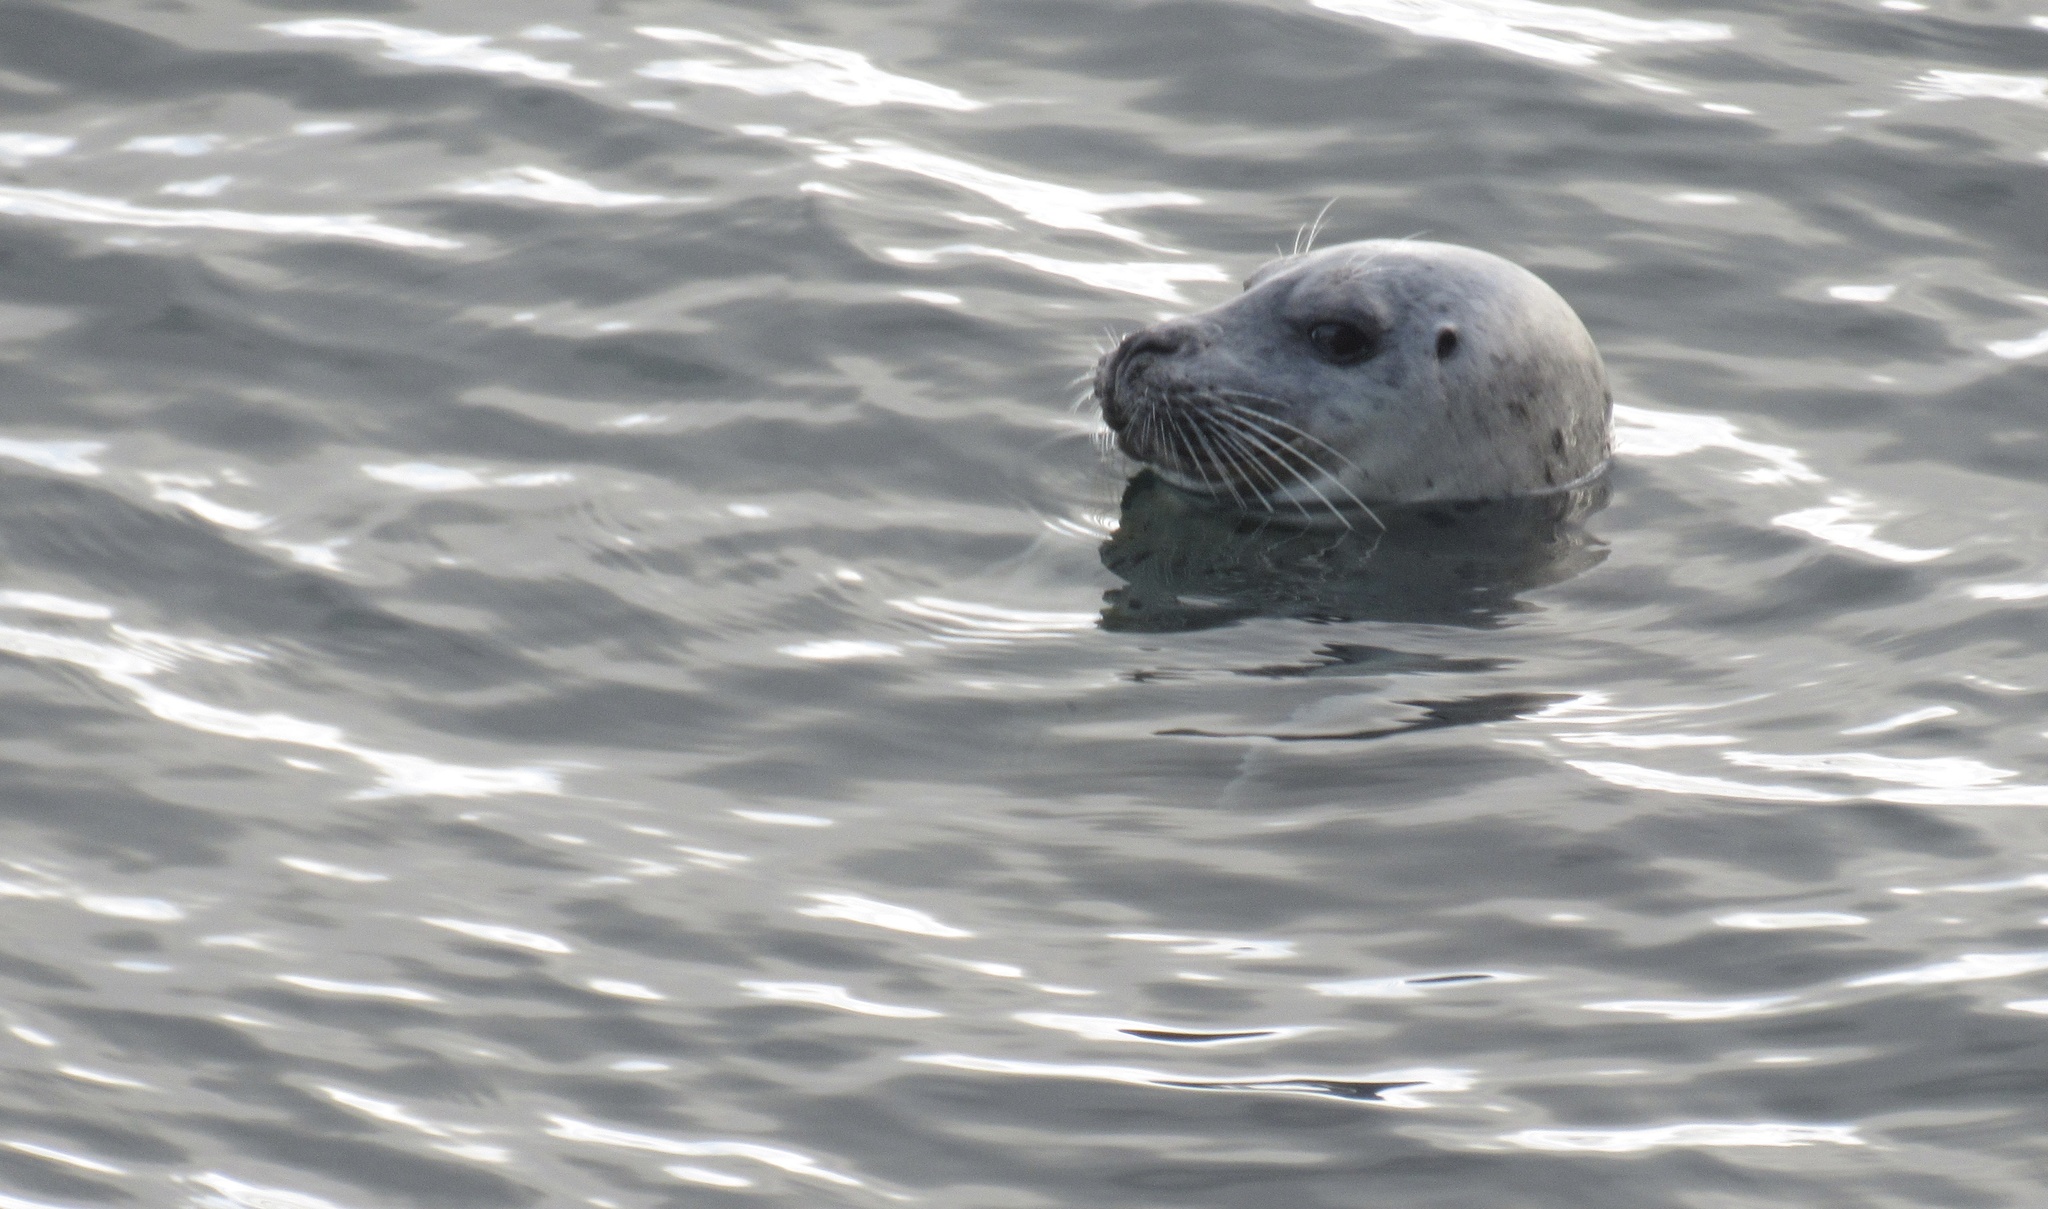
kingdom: Animalia
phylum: Chordata
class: Mammalia
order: Carnivora
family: Phocidae
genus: Phoca
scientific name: Phoca vitulina
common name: Harbor seal
